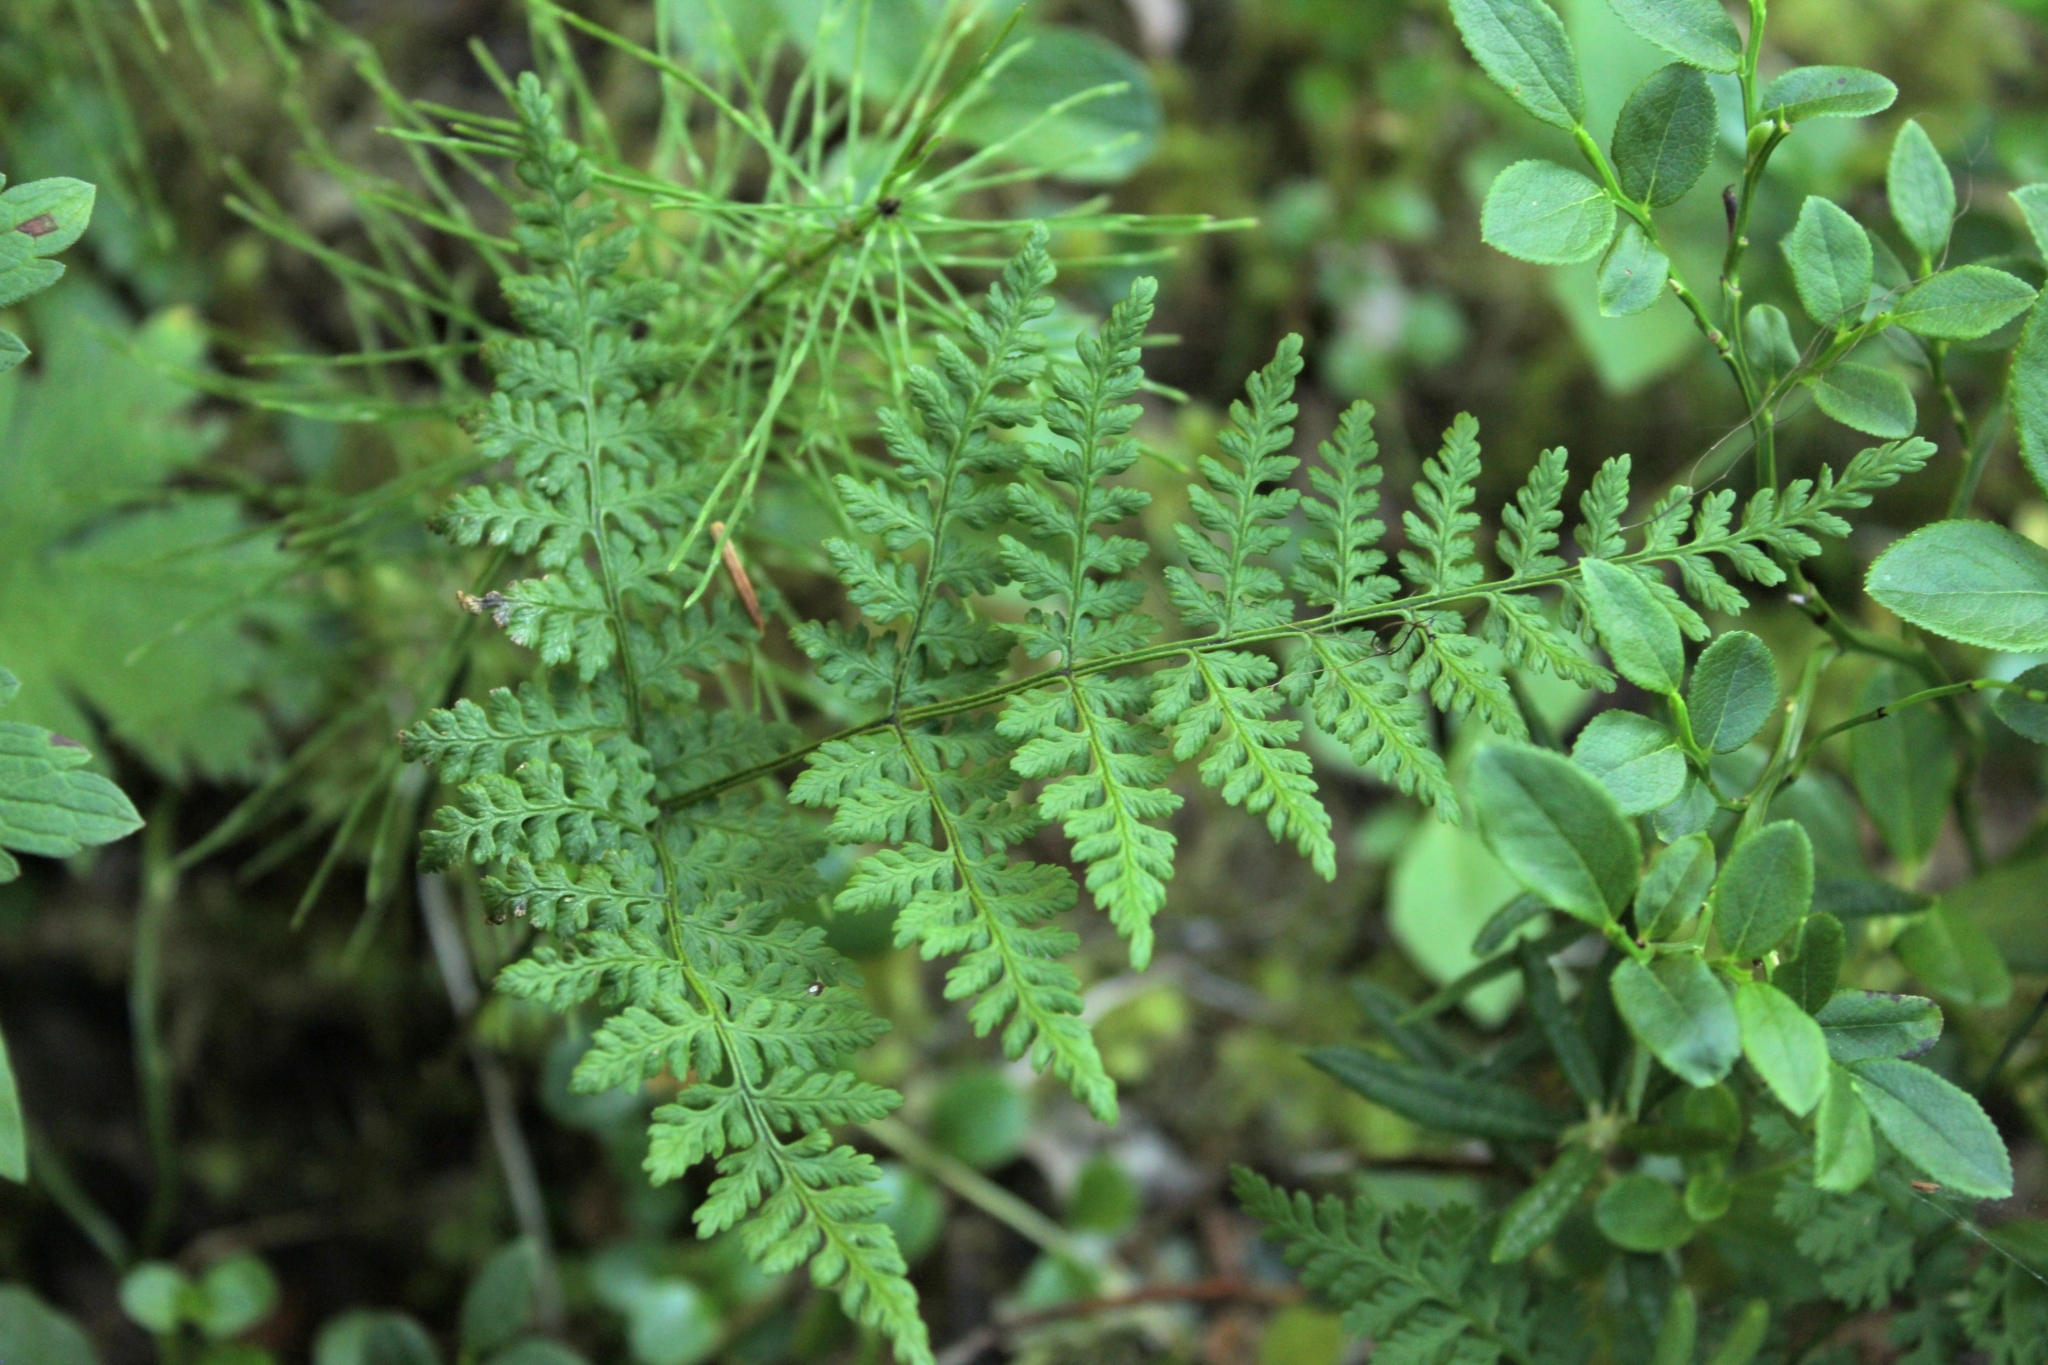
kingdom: Plantae
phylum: Tracheophyta
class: Polypodiopsida
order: Polypodiales
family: Cystopteridaceae
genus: Cystopteris
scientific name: Cystopteris montana
